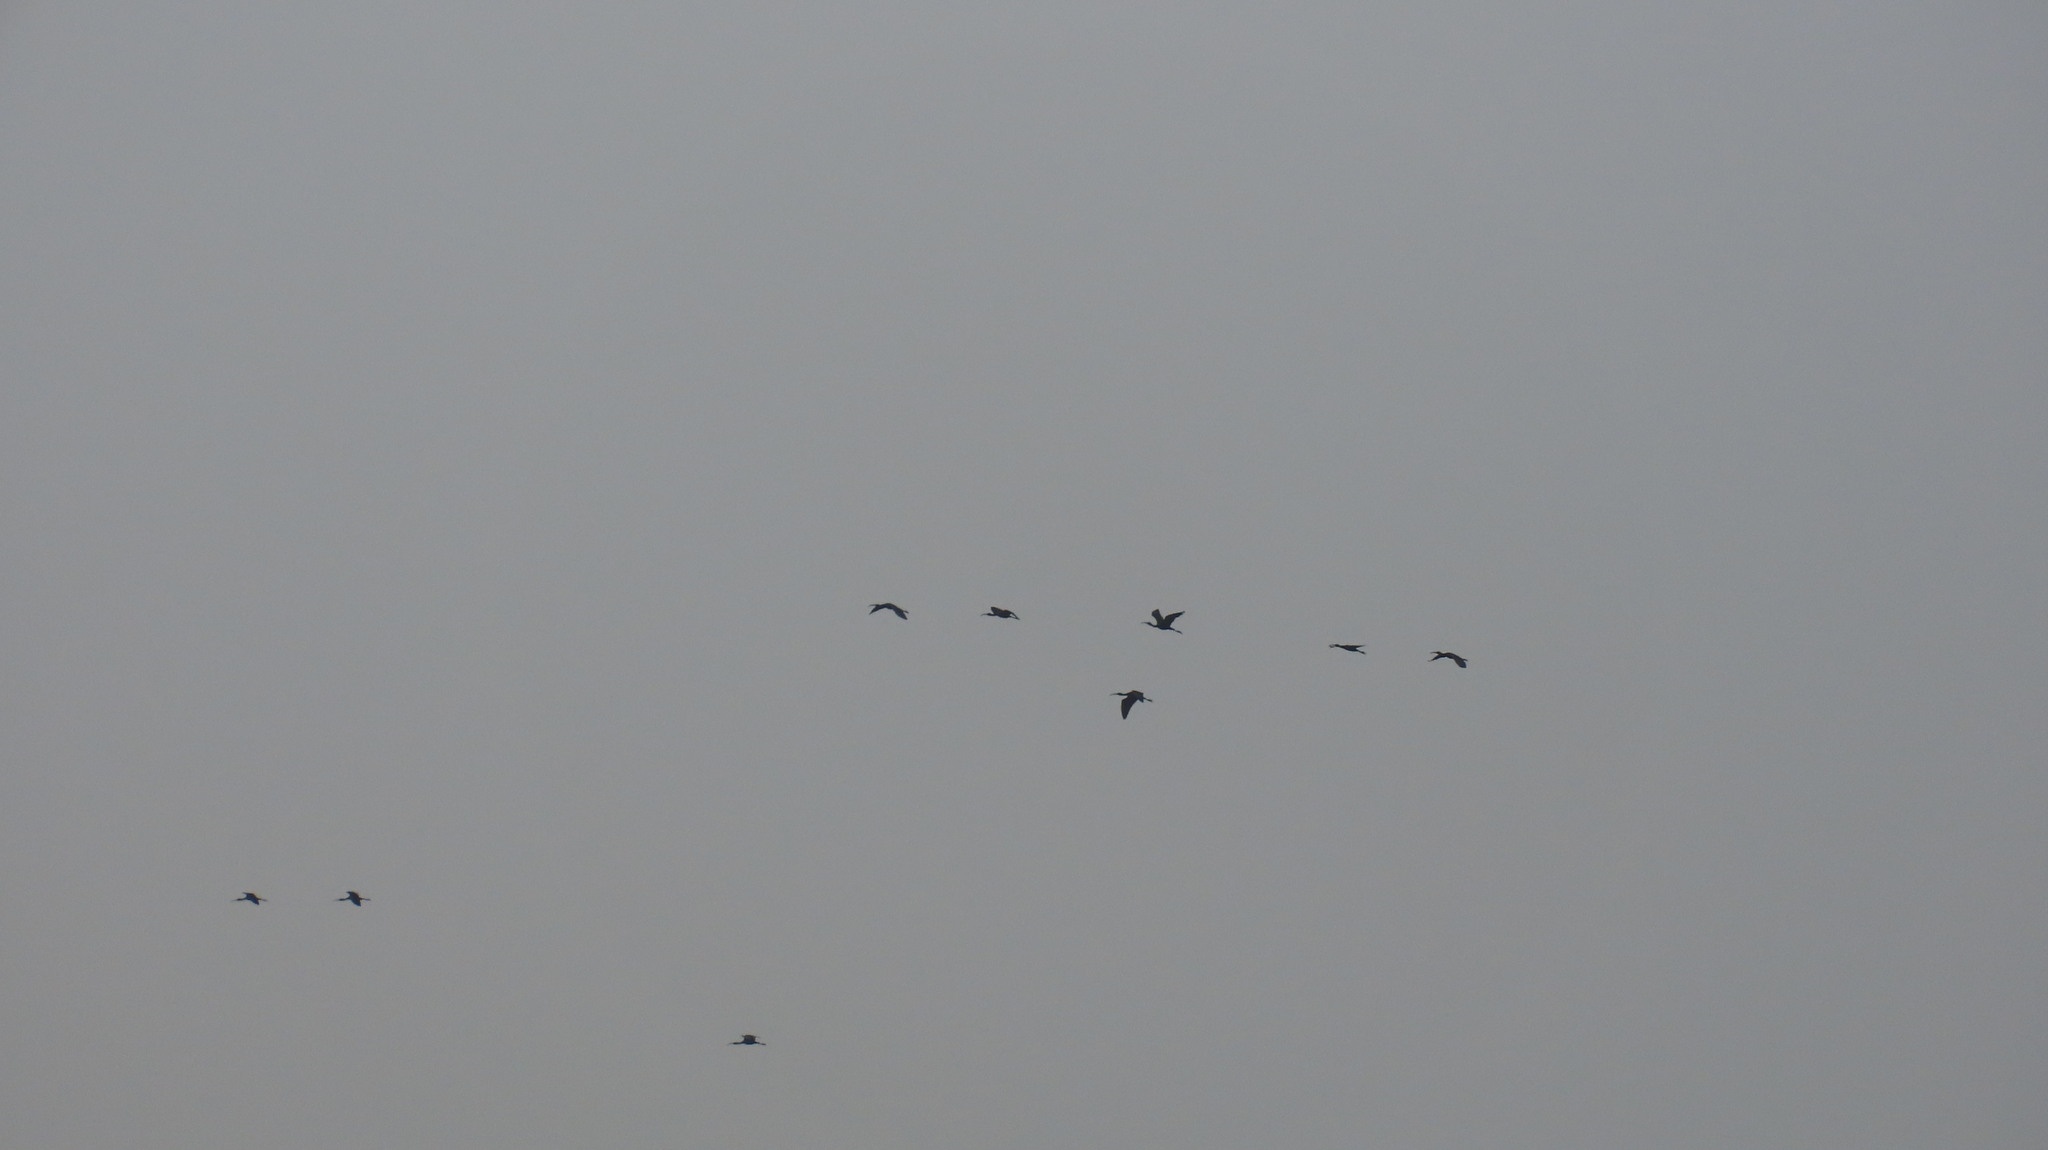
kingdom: Animalia
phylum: Chordata
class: Aves
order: Pelecaniformes
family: Threskiornithidae
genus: Plegadis
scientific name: Plegadis falcinellus
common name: Glossy ibis
